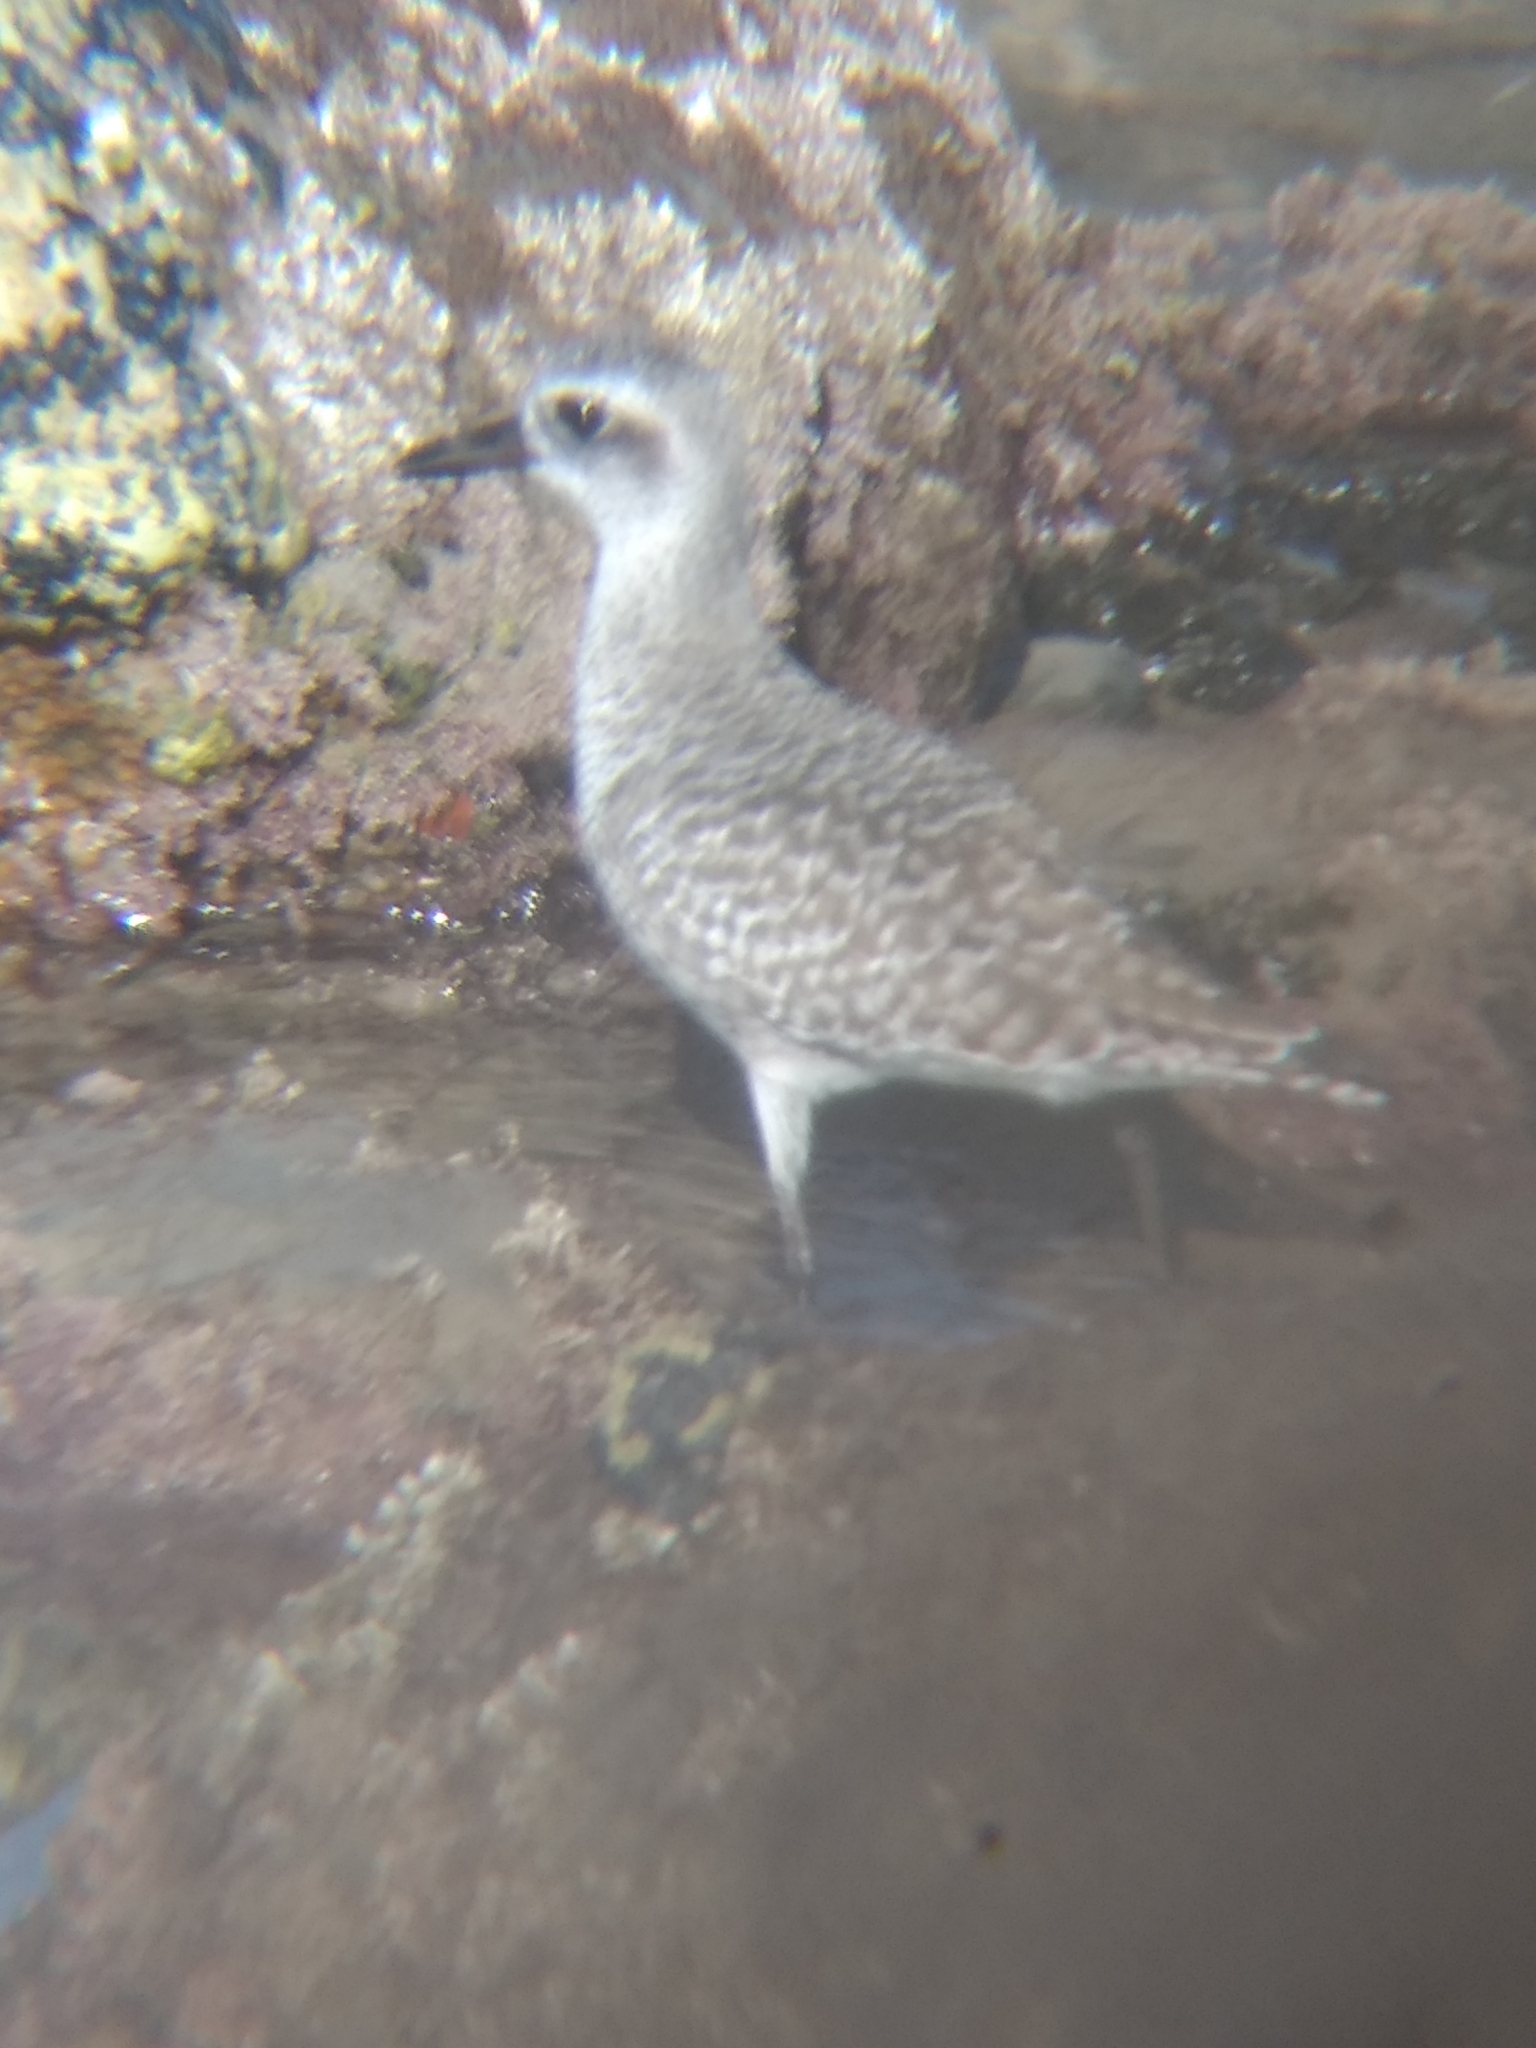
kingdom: Animalia
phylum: Chordata
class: Aves
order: Charadriiformes
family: Charadriidae
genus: Pluvialis
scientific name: Pluvialis squatarola
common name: Grey plover
